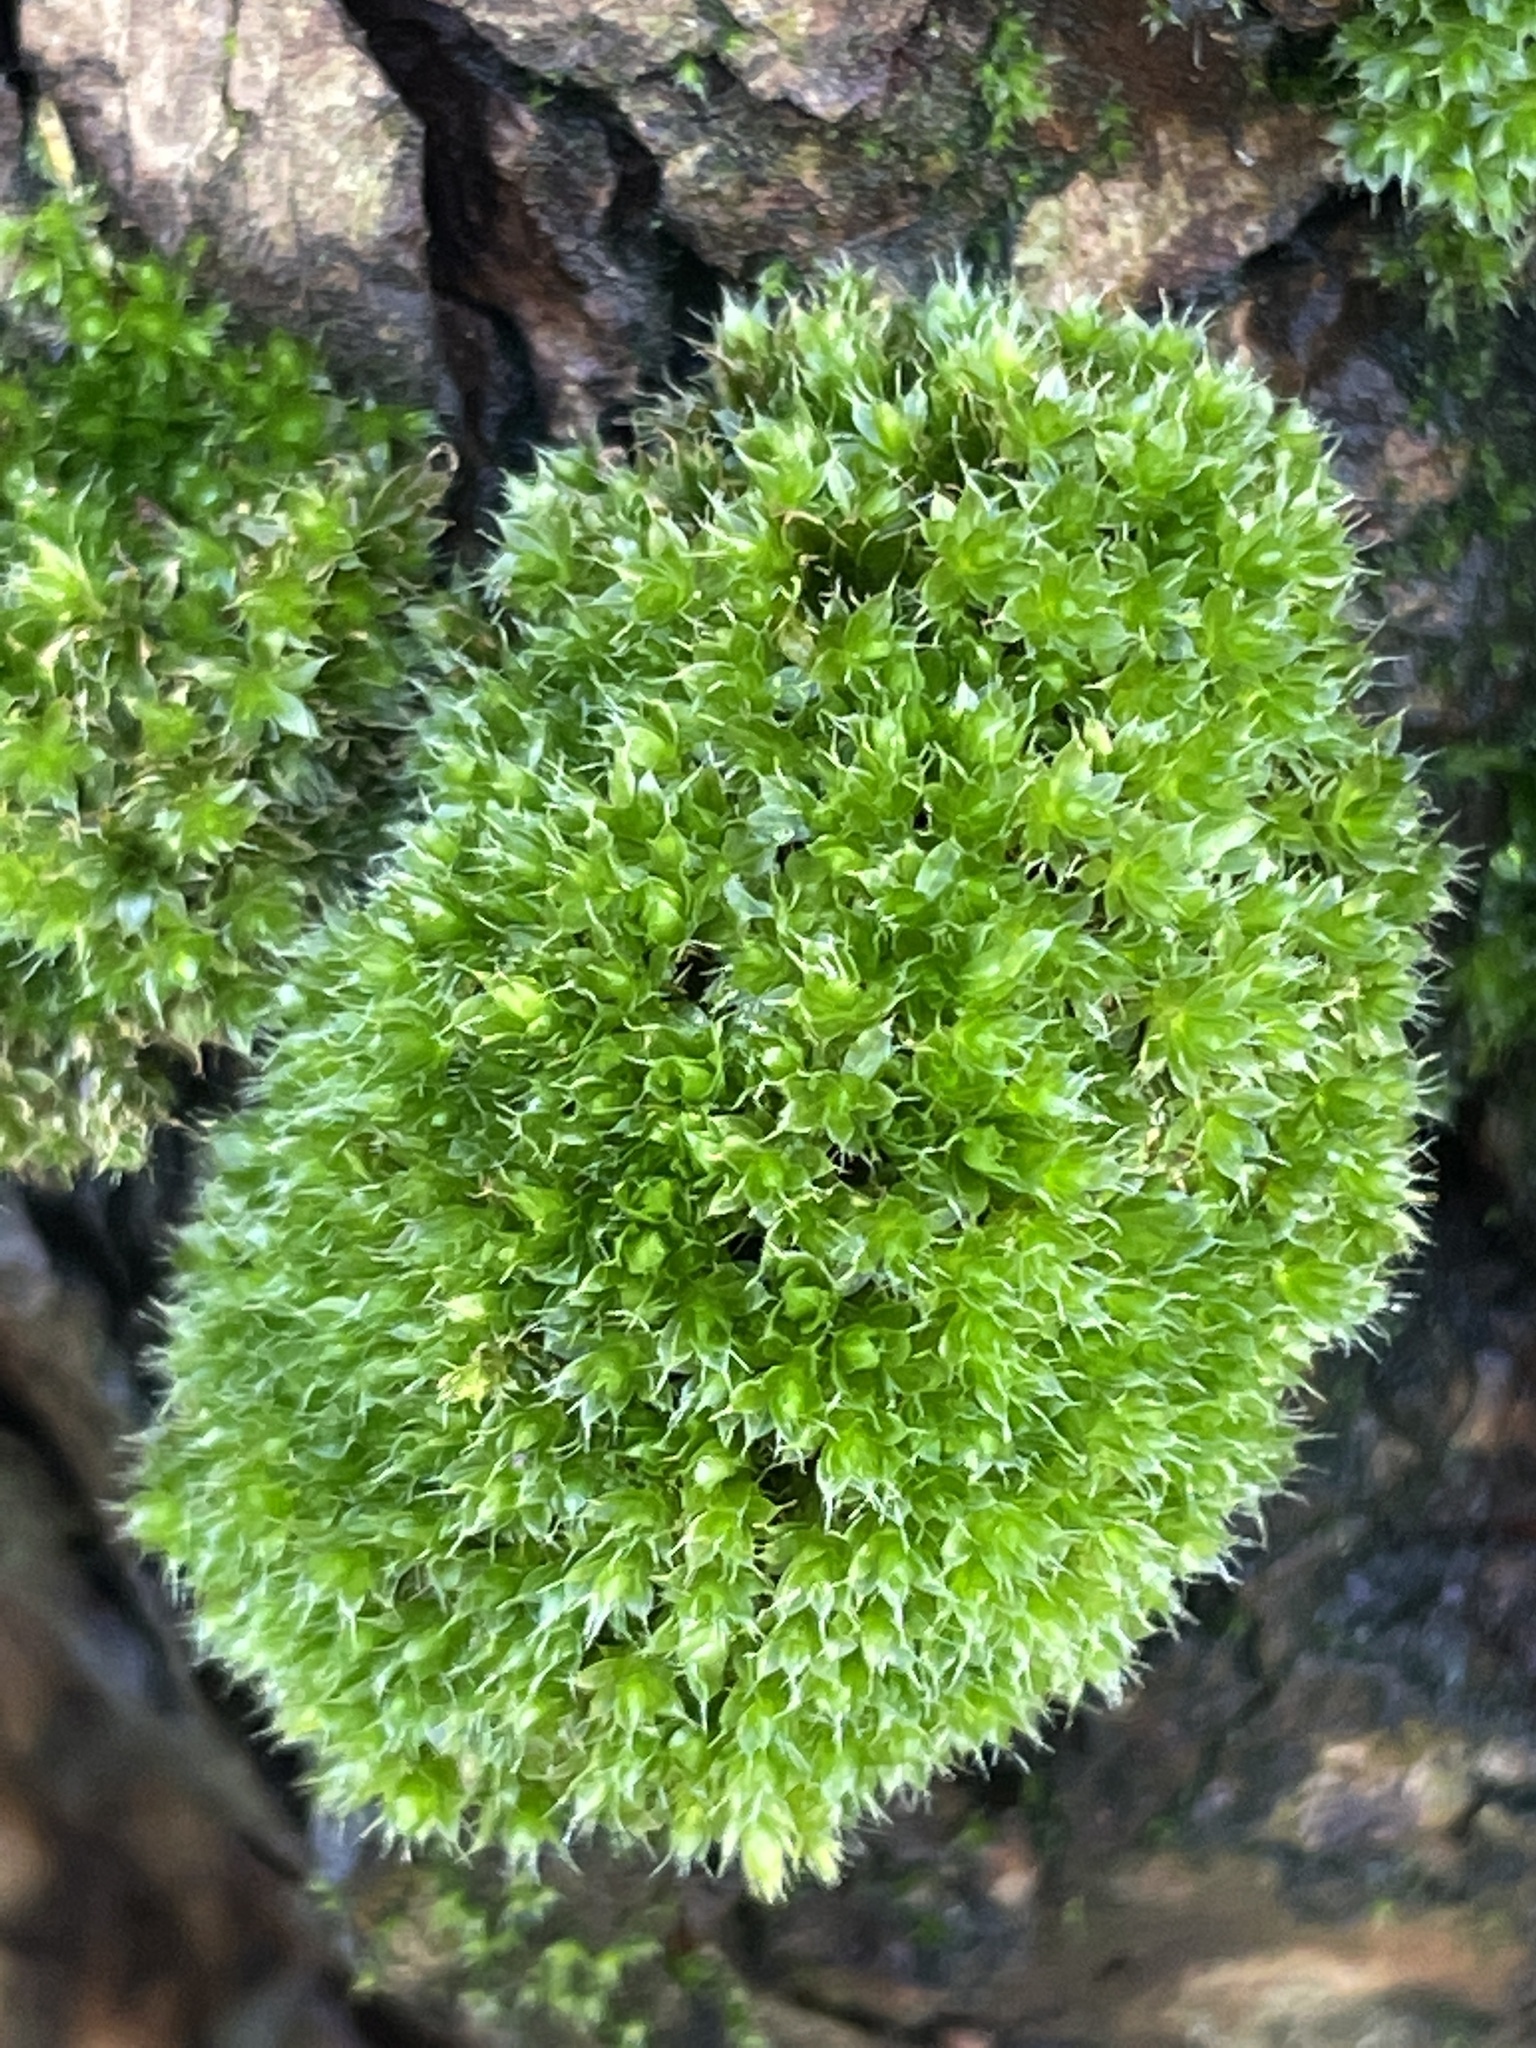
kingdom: Plantae
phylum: Bryophyta
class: Bryopsida
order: Bryales
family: Bryaceae
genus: Rosulabryum
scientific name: Rosulabryum capillare
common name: Capillary thread-moss
